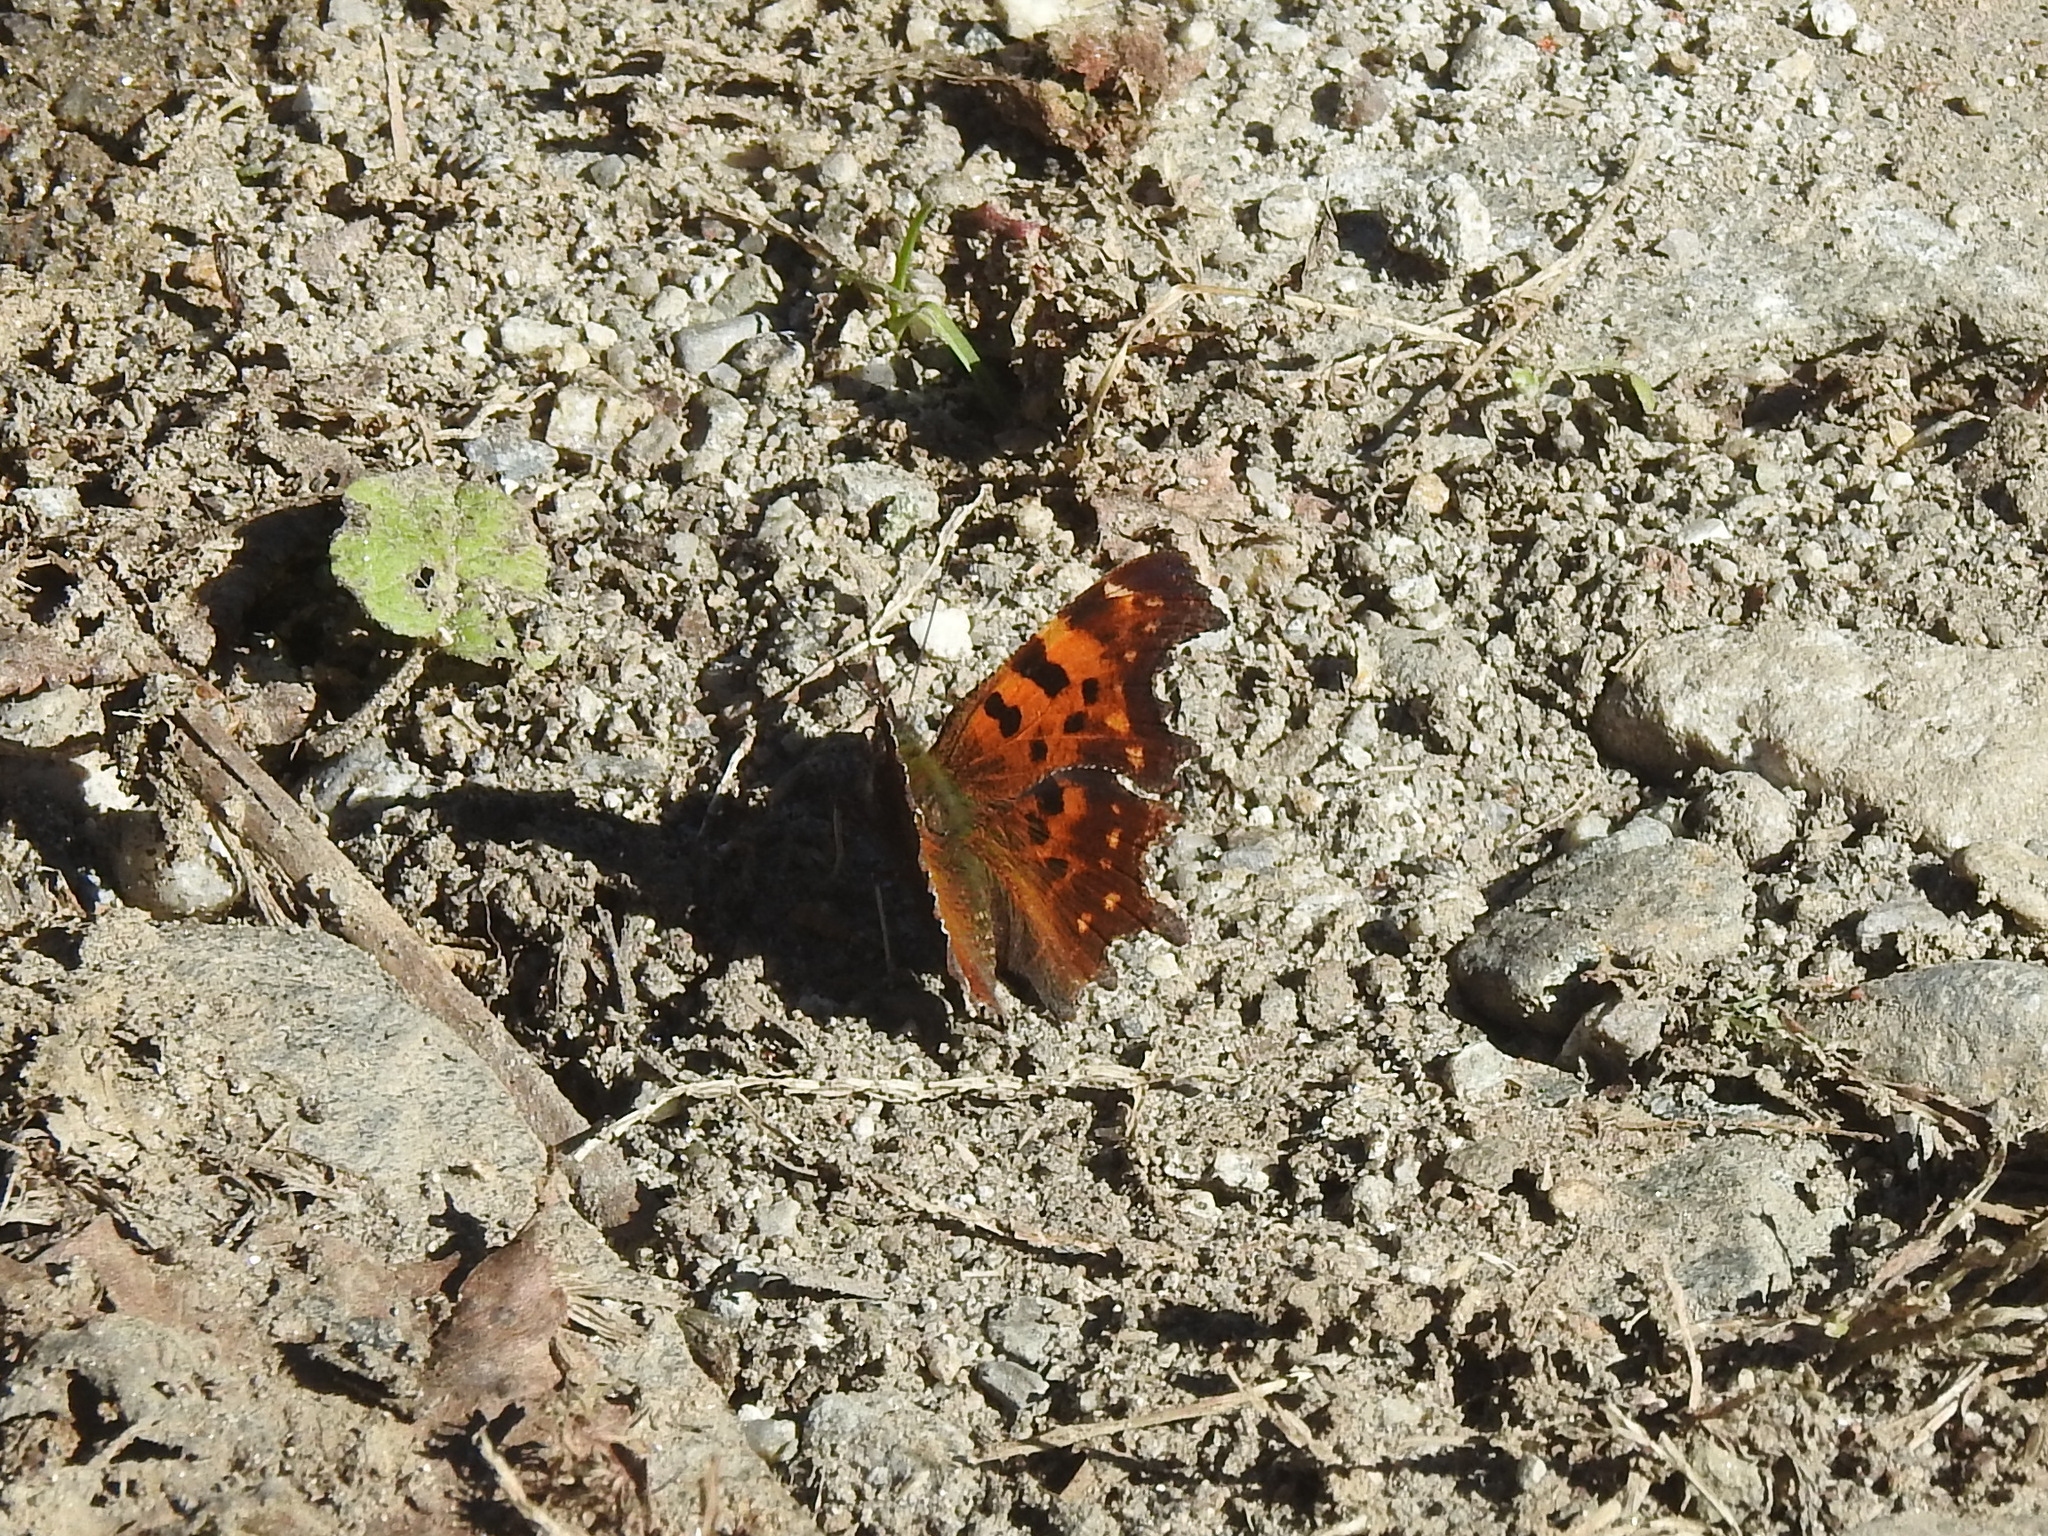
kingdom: Animalia
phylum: Arthropoda
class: Insecta
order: Lepidoptera
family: Nymphalidae
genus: Polygonia
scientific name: Polygonia c-album
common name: Comma
